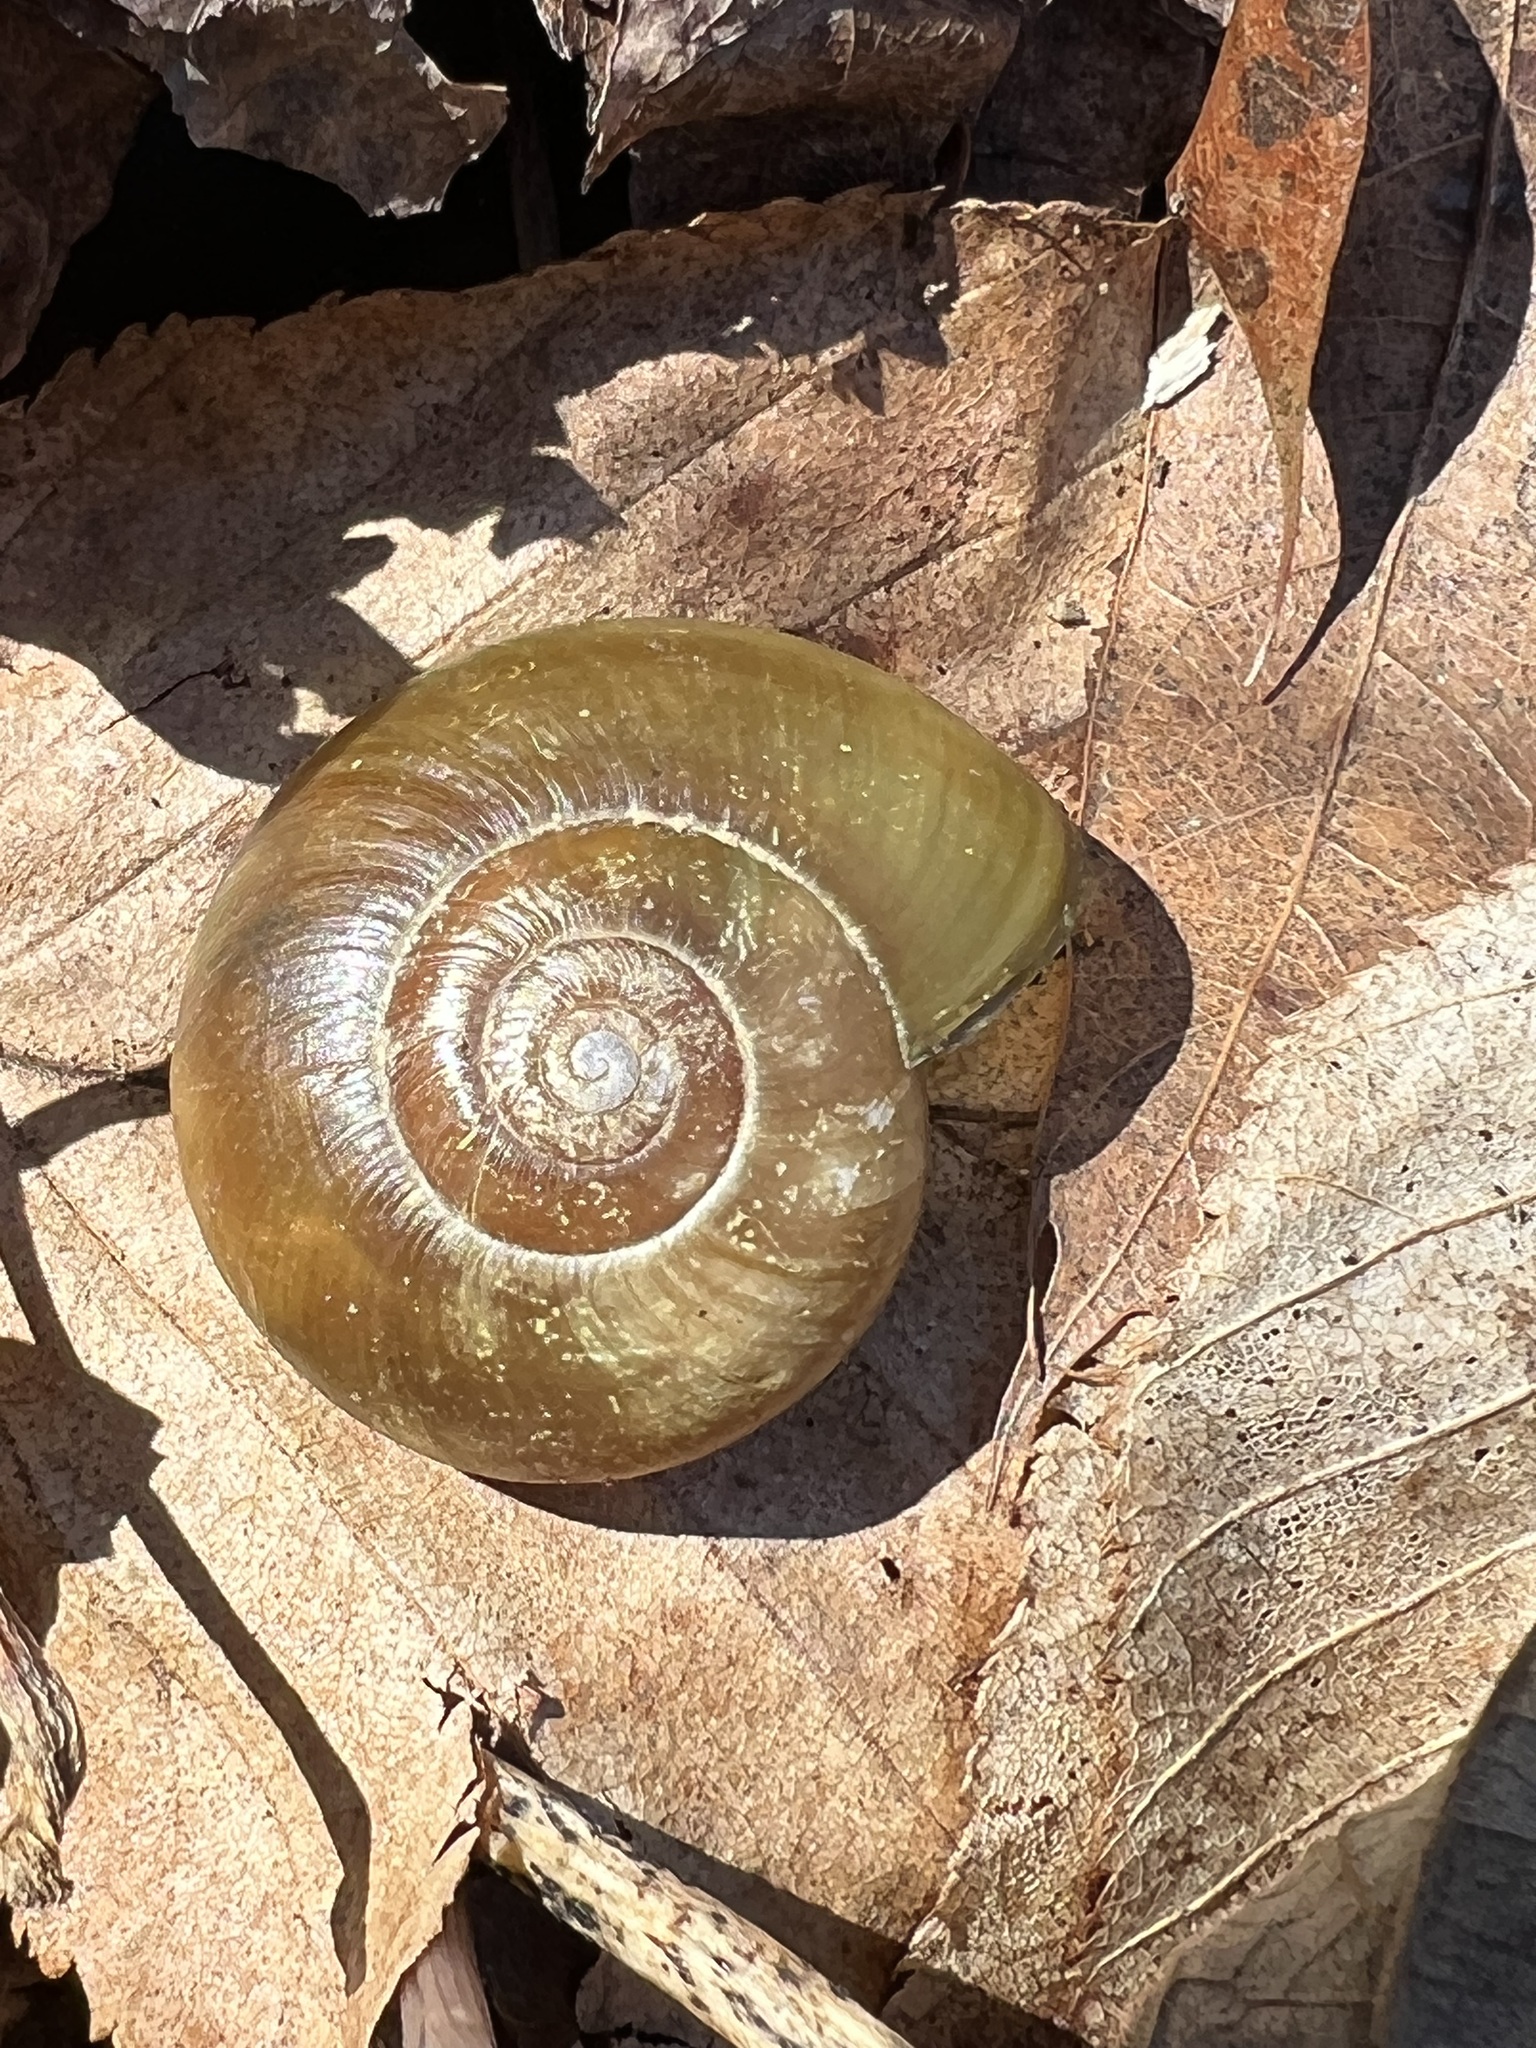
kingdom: Animalia
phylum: Mollusca
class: Gastropoda
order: Stylommatophora
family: Haplotrematidae
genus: Haplotrema
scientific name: Haplotrema concavum
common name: Gray-foot lancetooth
